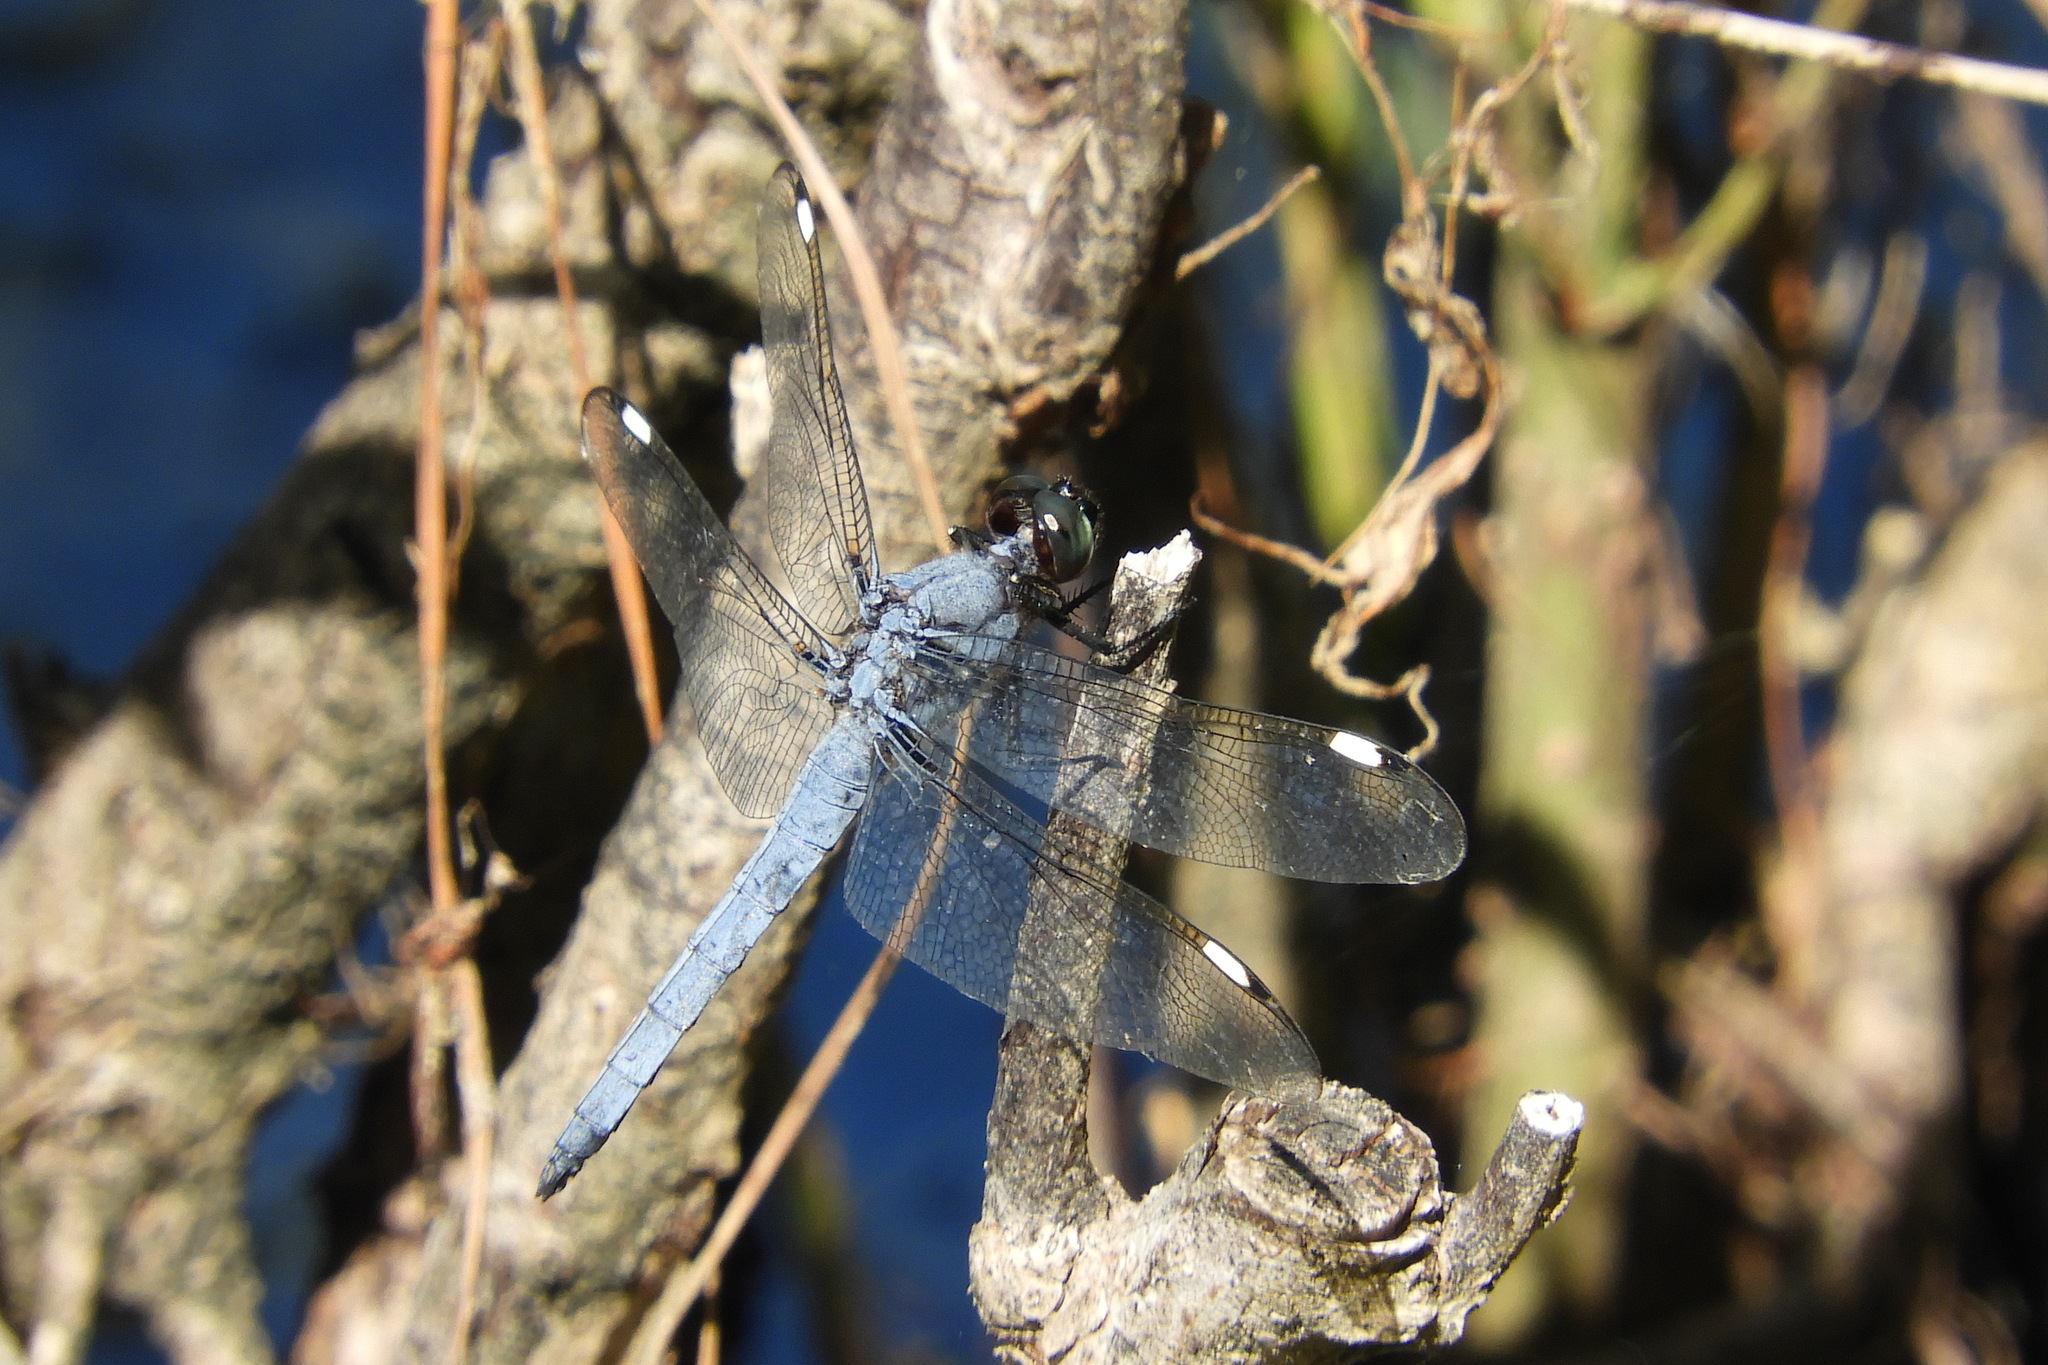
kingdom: Animalia
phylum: Arthropoda
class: Insecta
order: Odonata
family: Libellulidae
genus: Libellula
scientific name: Libellula cyanea
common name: Spangled skimmer
